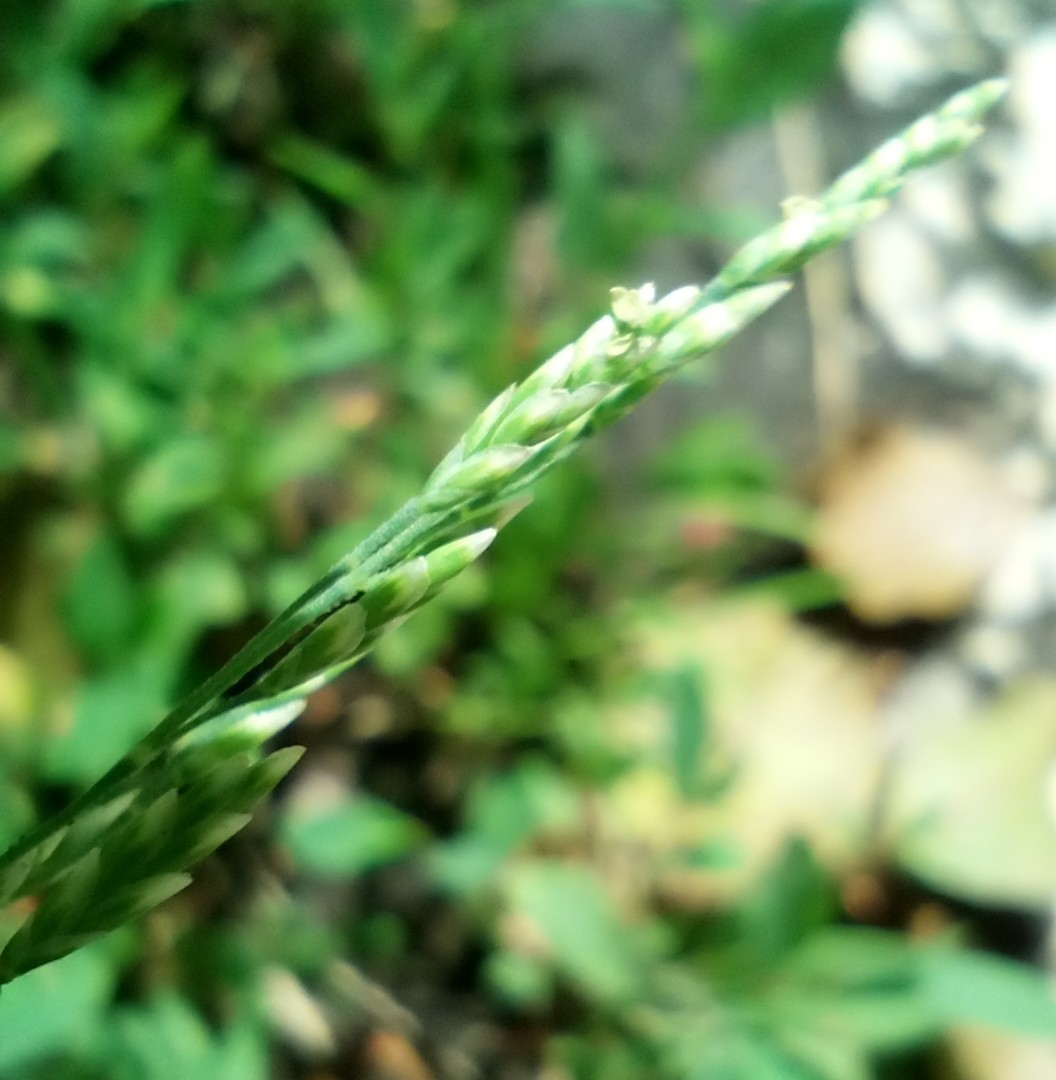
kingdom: Plantae
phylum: Tracheophyta
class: Liliopsida
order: Poales
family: Poaceae
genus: Puccinellia
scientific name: Puccinellia distans
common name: Weeping alkaligrass
